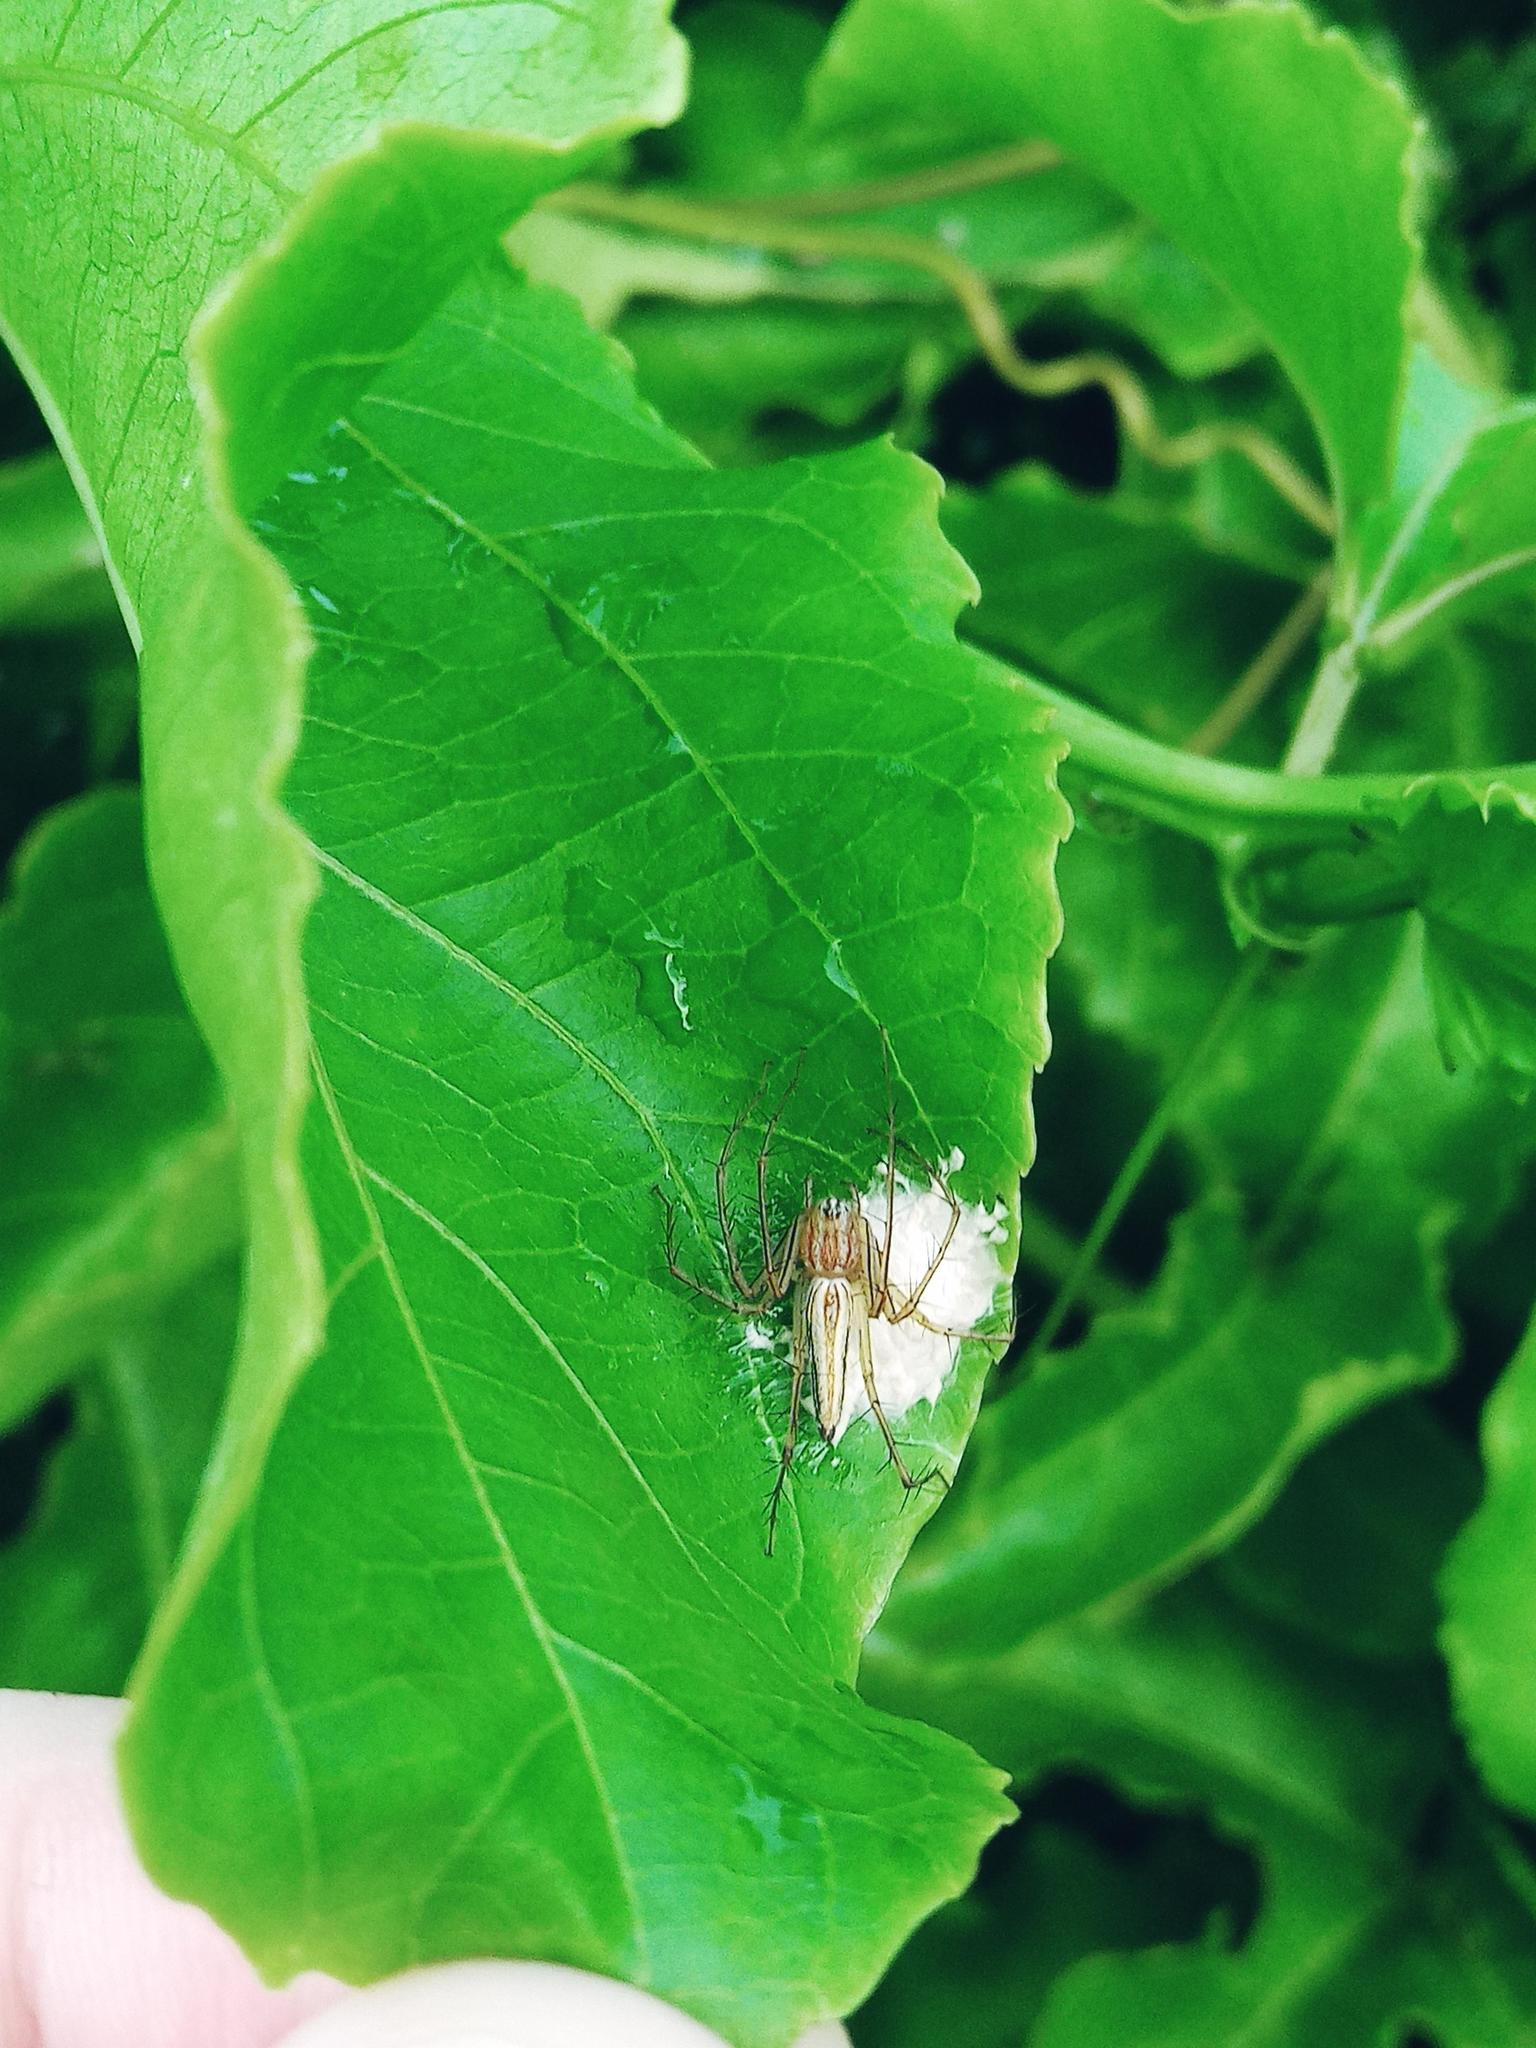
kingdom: Animalia
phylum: Arthropoda
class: Arachnida
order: Araneae
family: Oxyopidae
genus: Oxyopes
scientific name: Oxyopes macilentus
